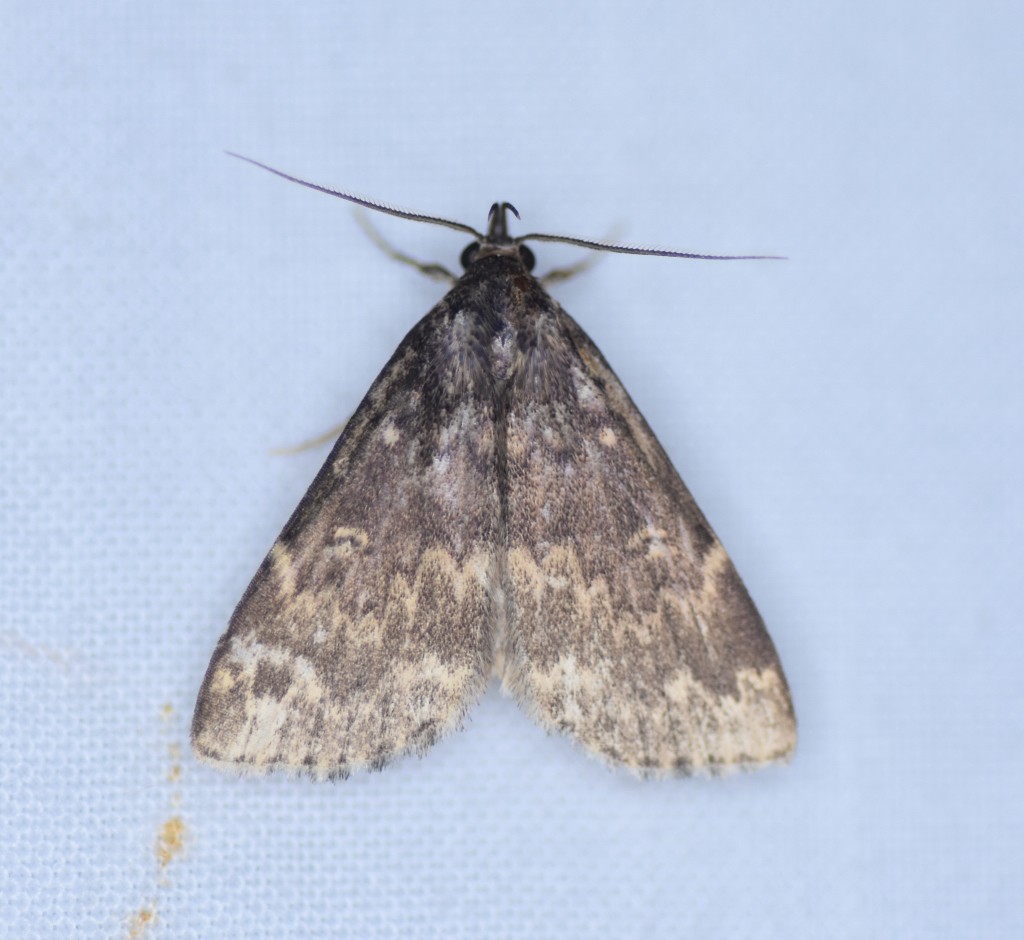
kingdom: Animalia
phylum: Arthropoda
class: Insecta
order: Lepidoptera
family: Erebidae
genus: Idia
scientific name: Idia lubricalis
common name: Twin-striped tabby
